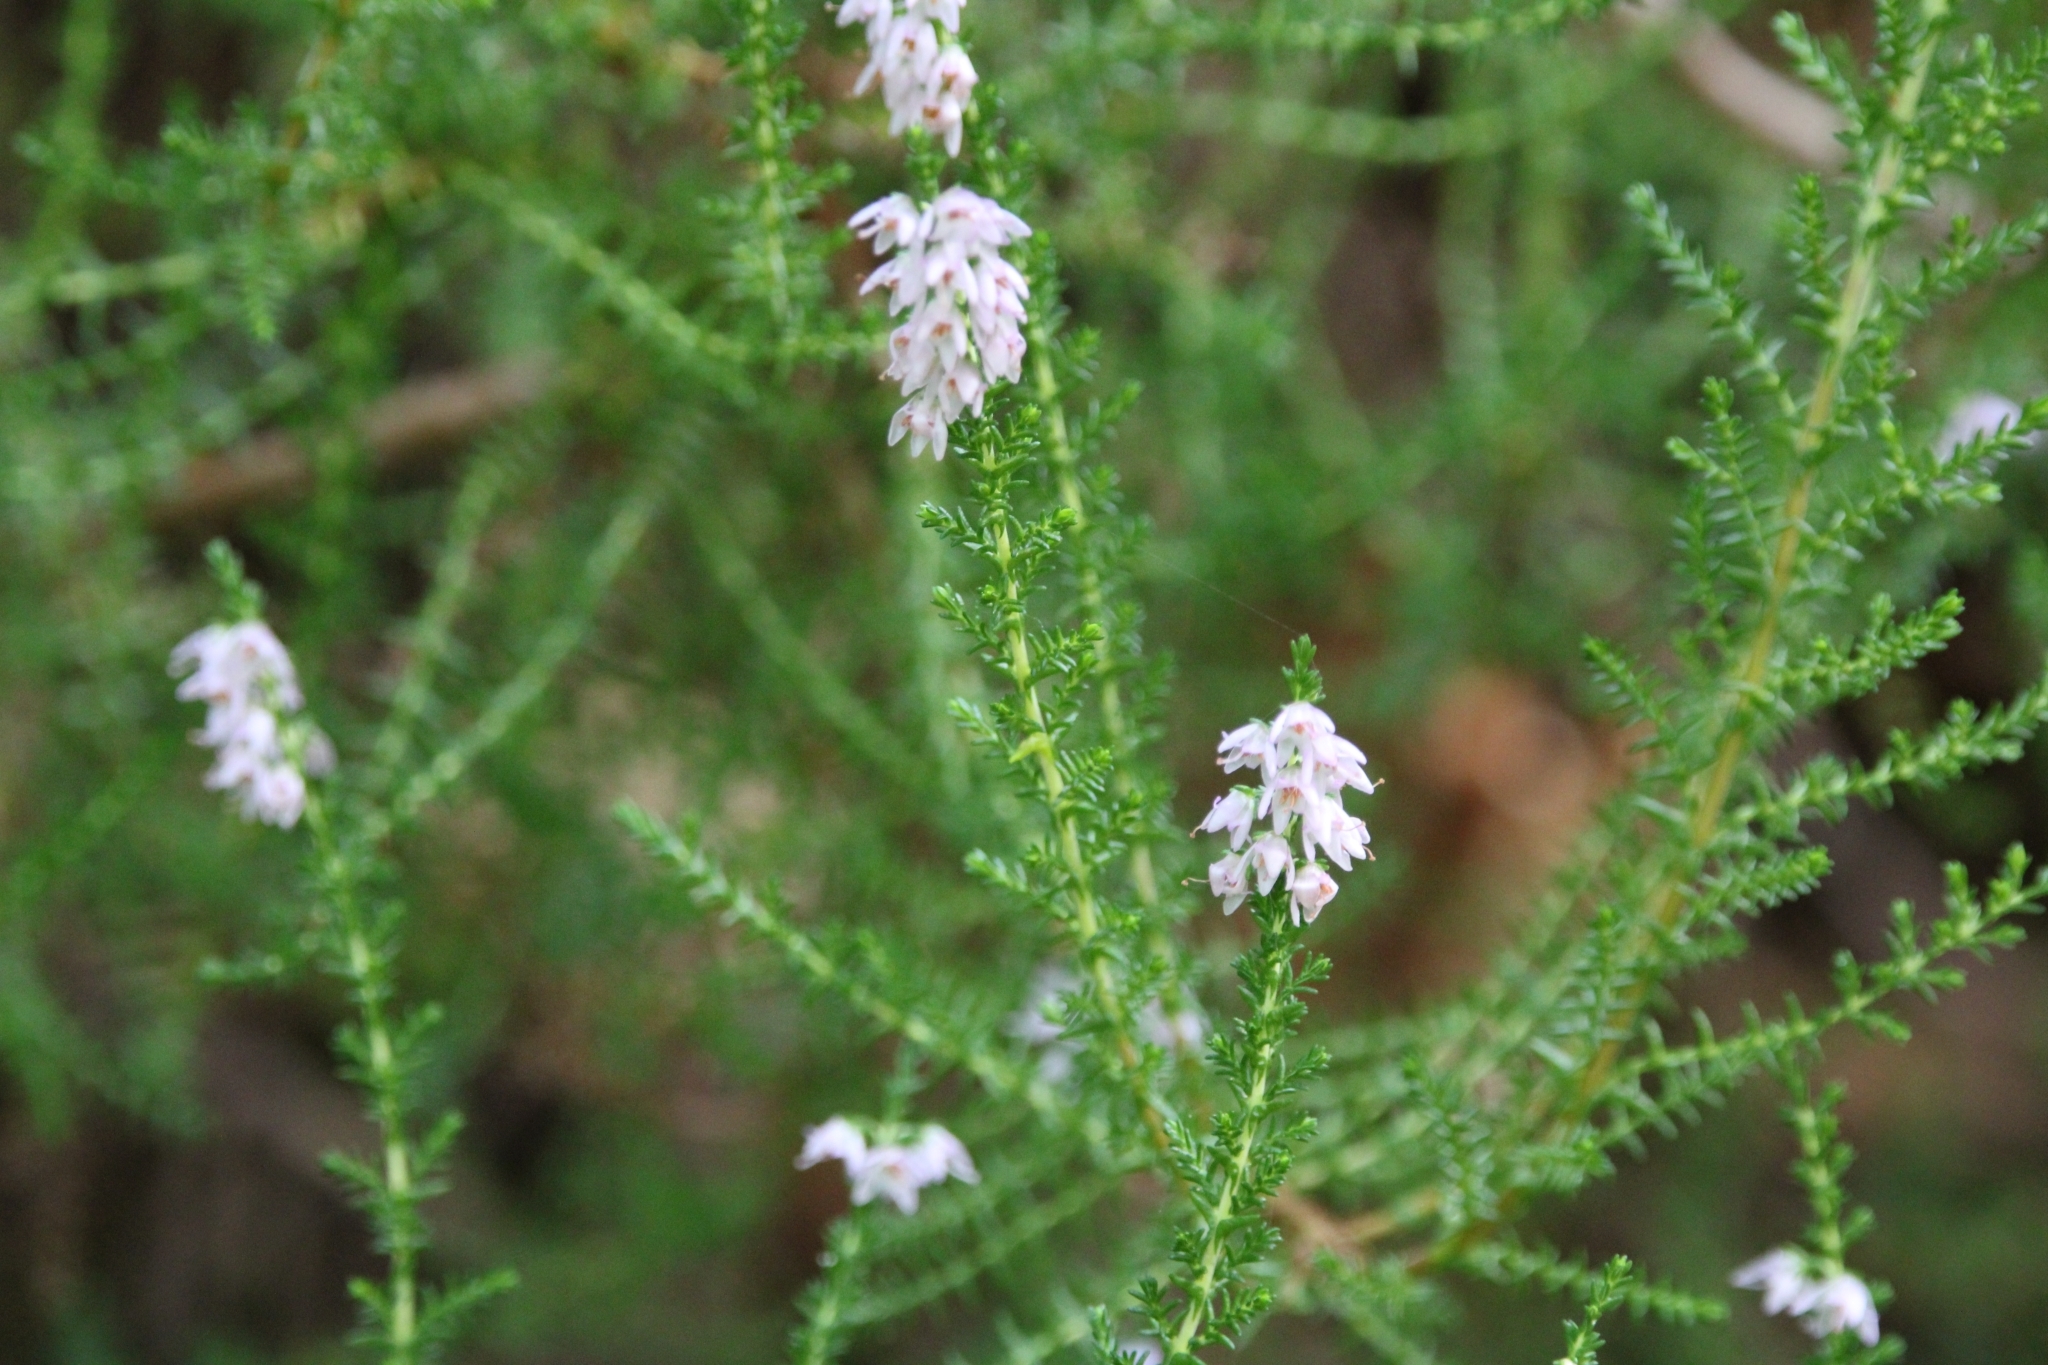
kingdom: Plantae
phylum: Tracheophyta
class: Magnoliopsida
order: Ericales
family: Ericaceae
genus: Calluna
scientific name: Calluna vulgaris
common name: Heather
